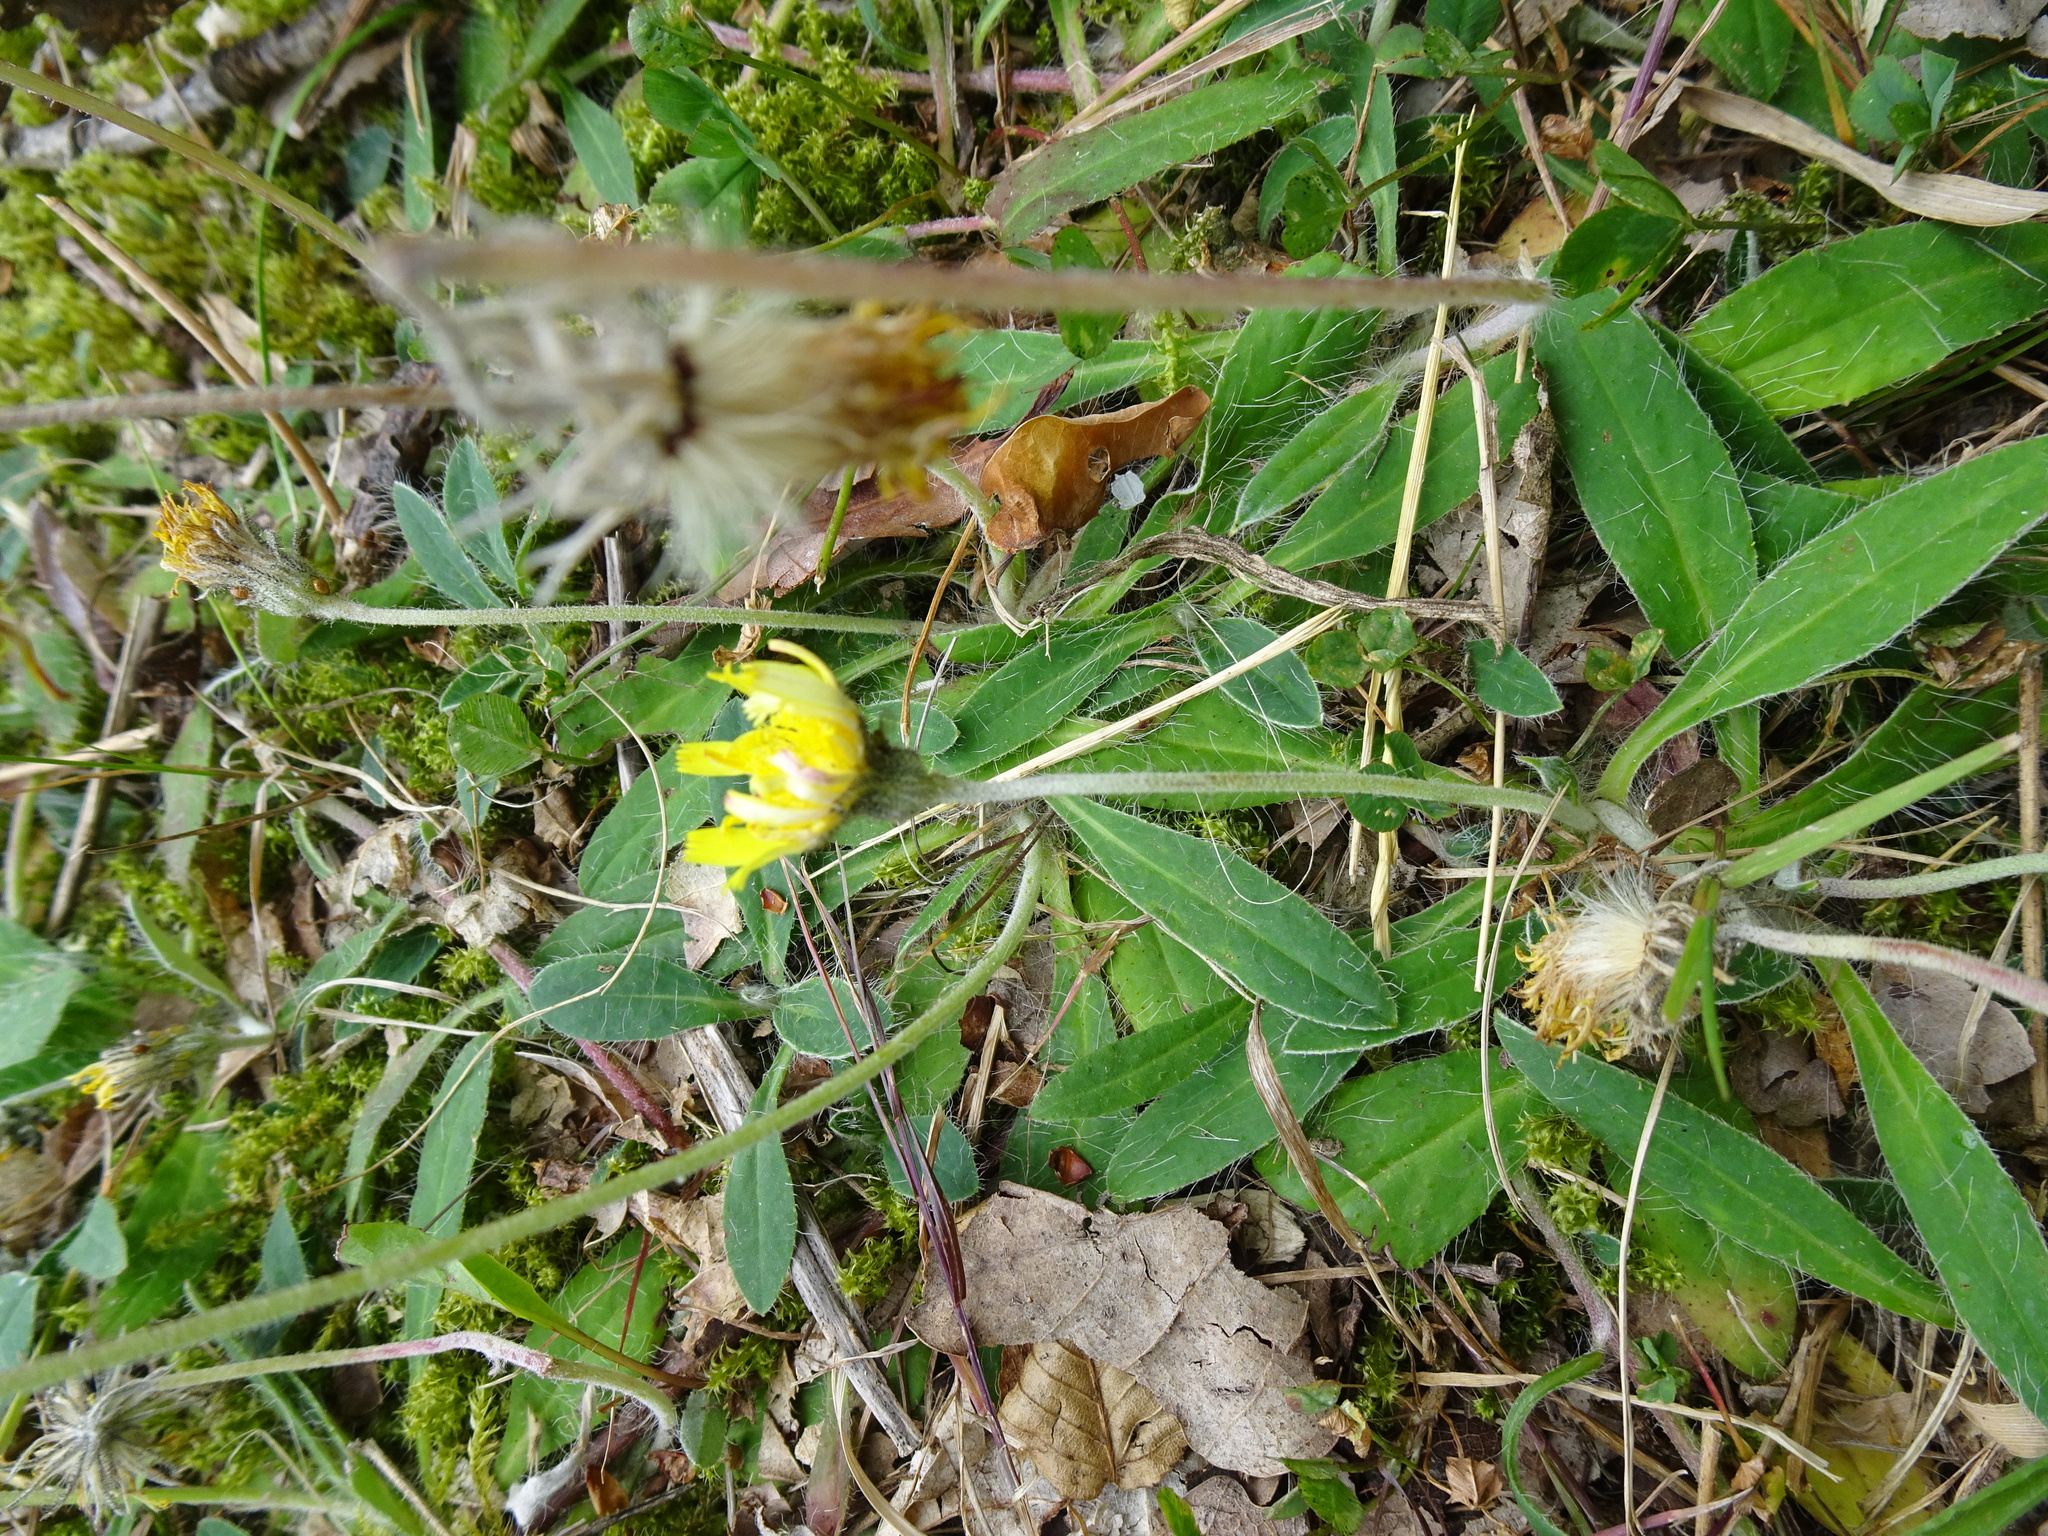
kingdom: Plantae
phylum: Tracheophyta
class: Magnoliopsida
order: Asterales
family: Asteraceae
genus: Pilosella
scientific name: Pilosella officinarum
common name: Mouse-ear hawkweed
